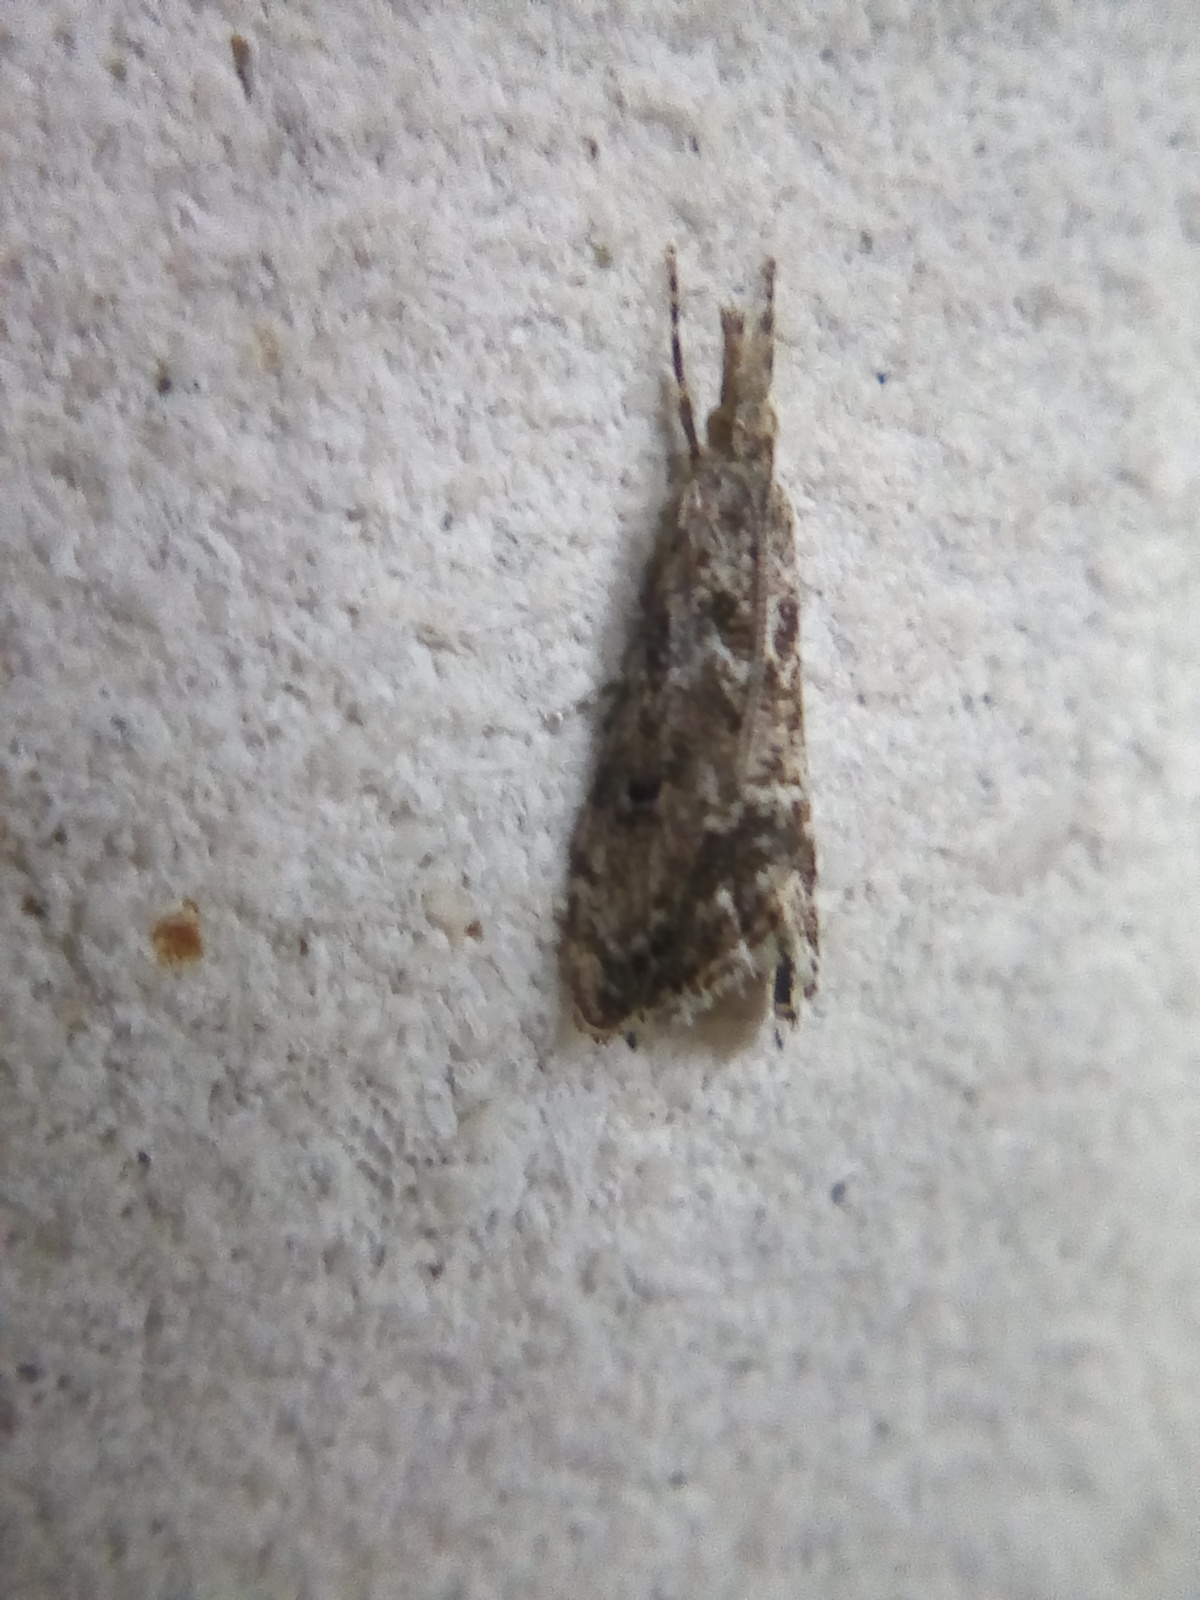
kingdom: Animalia
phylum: Arthropoda
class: Insecta
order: Lepidoptera
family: Crambidae
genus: Glaucocharis
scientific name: Glaucocharis elaina
